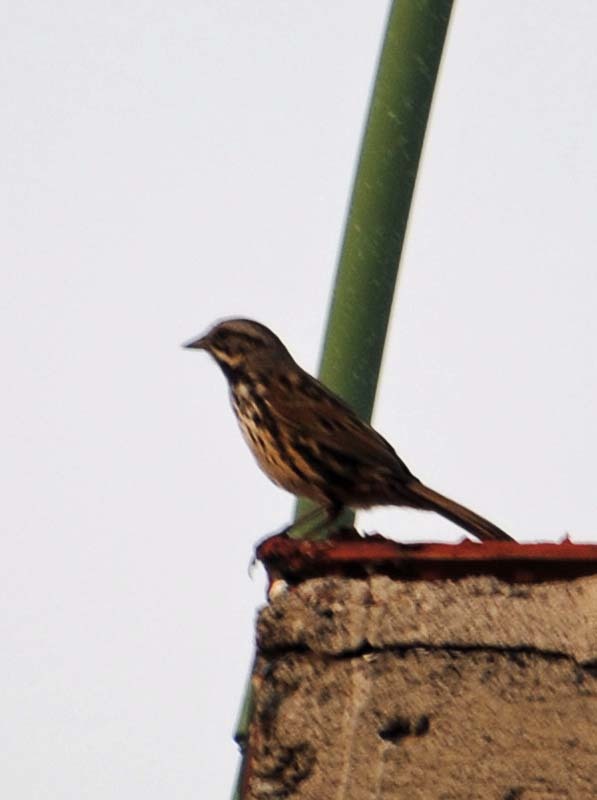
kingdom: Animalia
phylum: Chordata
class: Aves
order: Passeriformes
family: Passerellidae
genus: Melospiza
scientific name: Melospiza melodia
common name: Song sparrow
